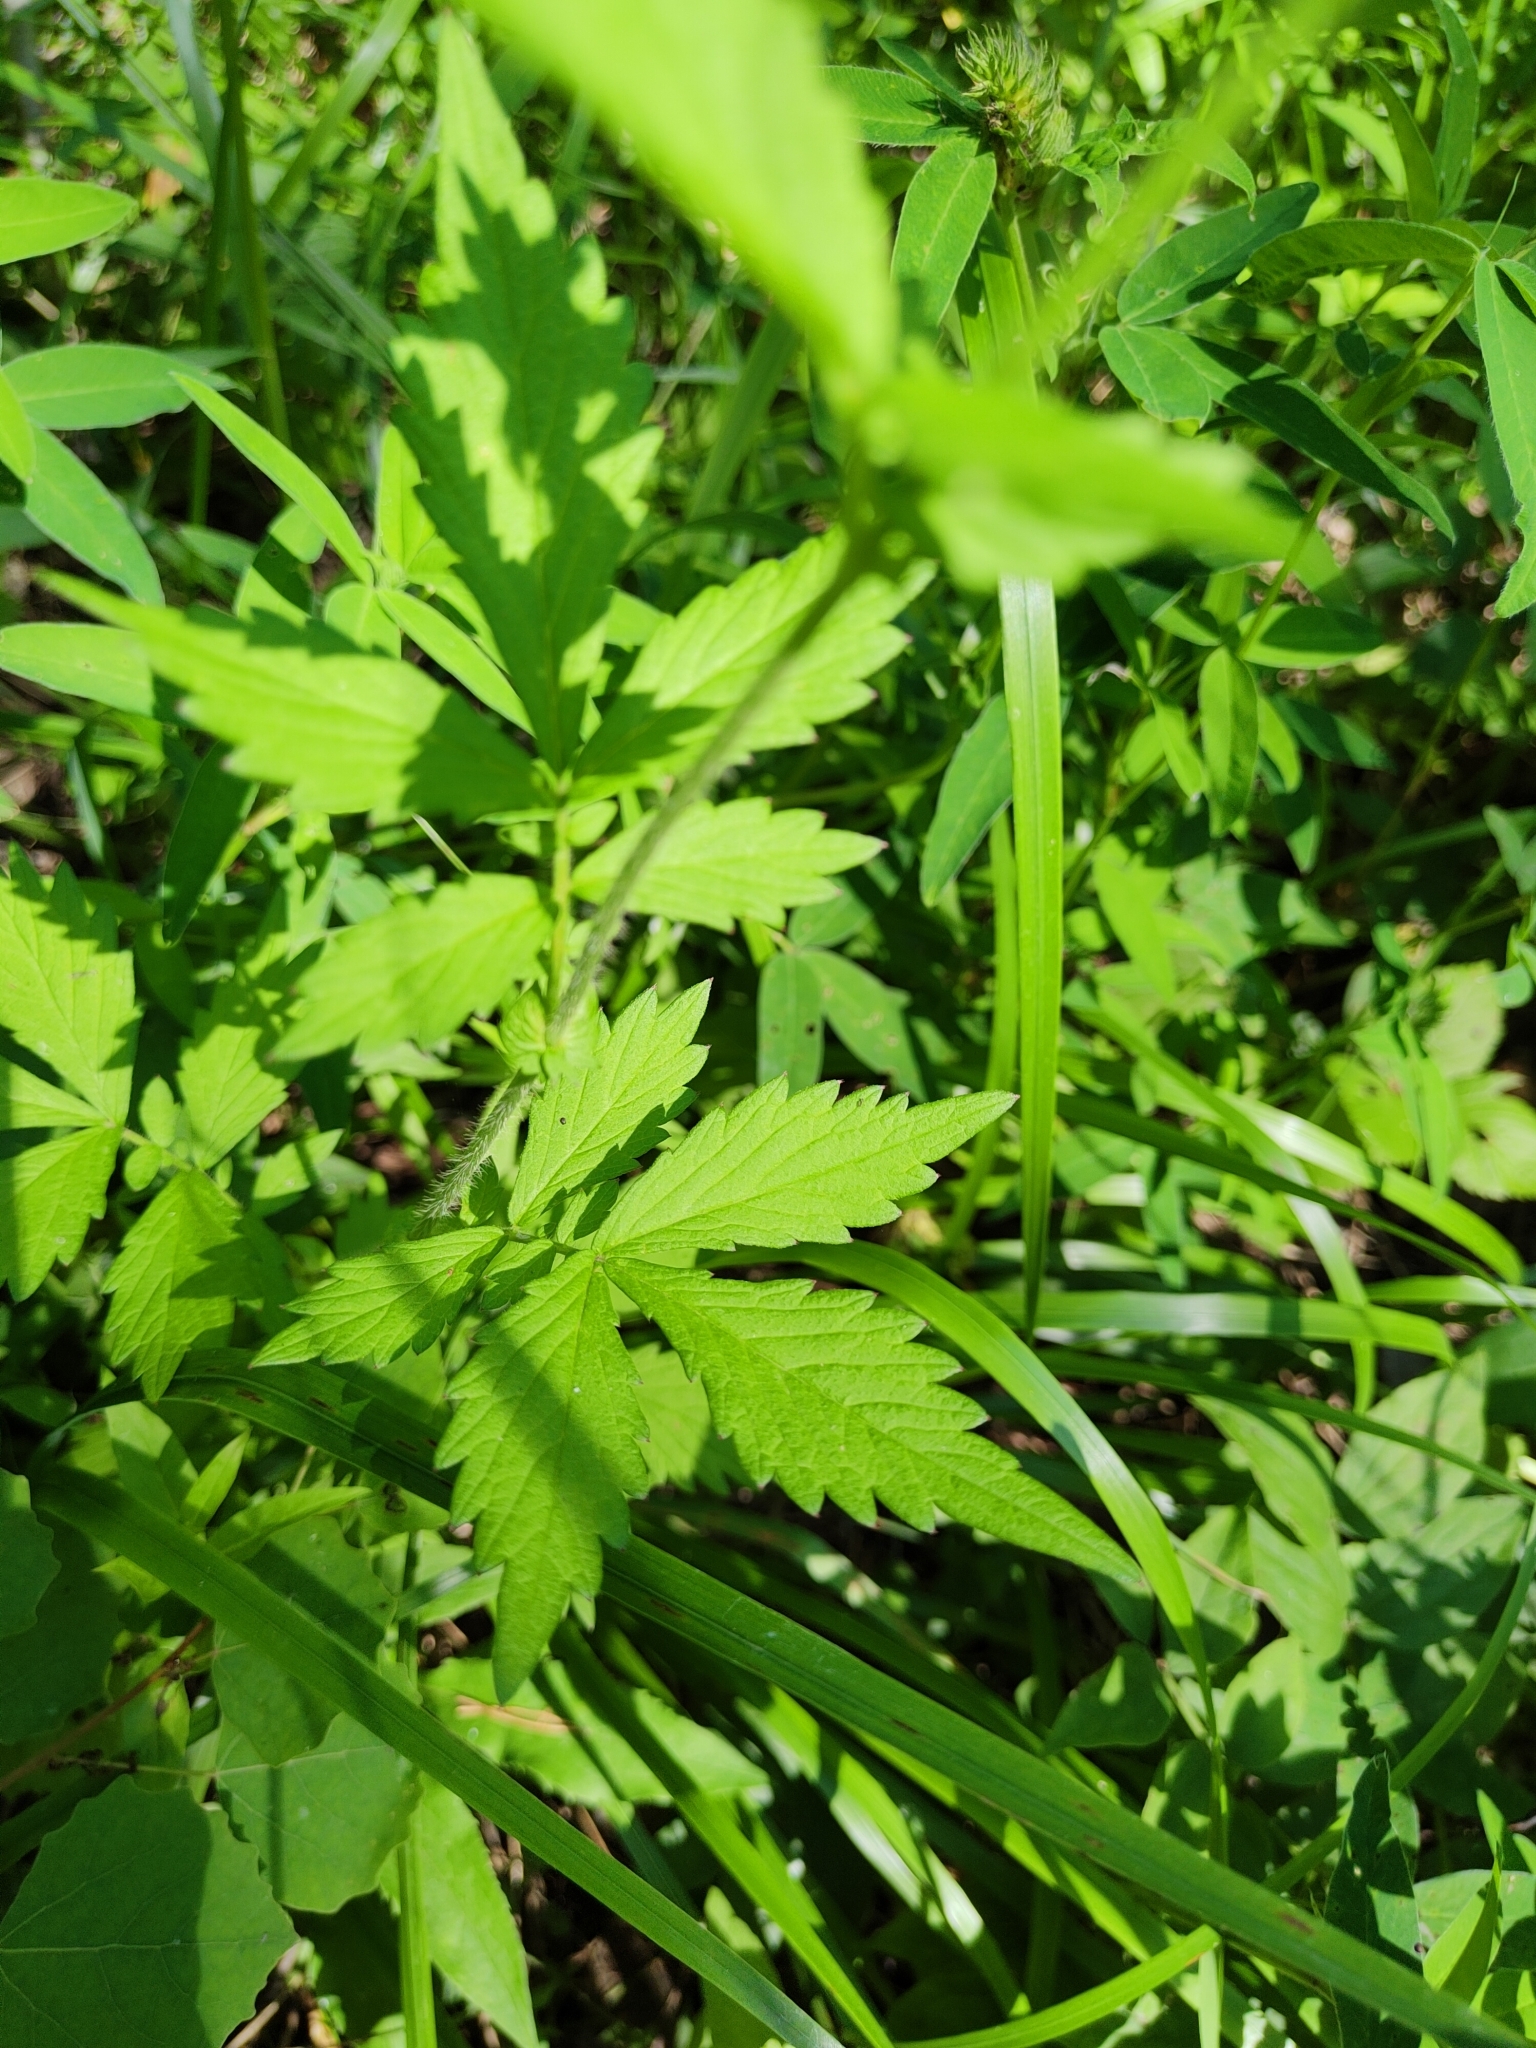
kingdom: Plantae
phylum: Tracheophyta
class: Magnoliopsida
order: Rosales
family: Rosaceae
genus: Agrimonia
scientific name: Agrimonia pilosa
